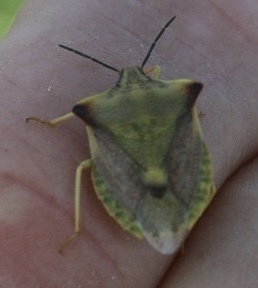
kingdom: Animalia
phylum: Arthropoda
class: Insecta
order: Hemiptera
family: Pentatomidae
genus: Carpocoris
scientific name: Carpocoris fuscispinus
